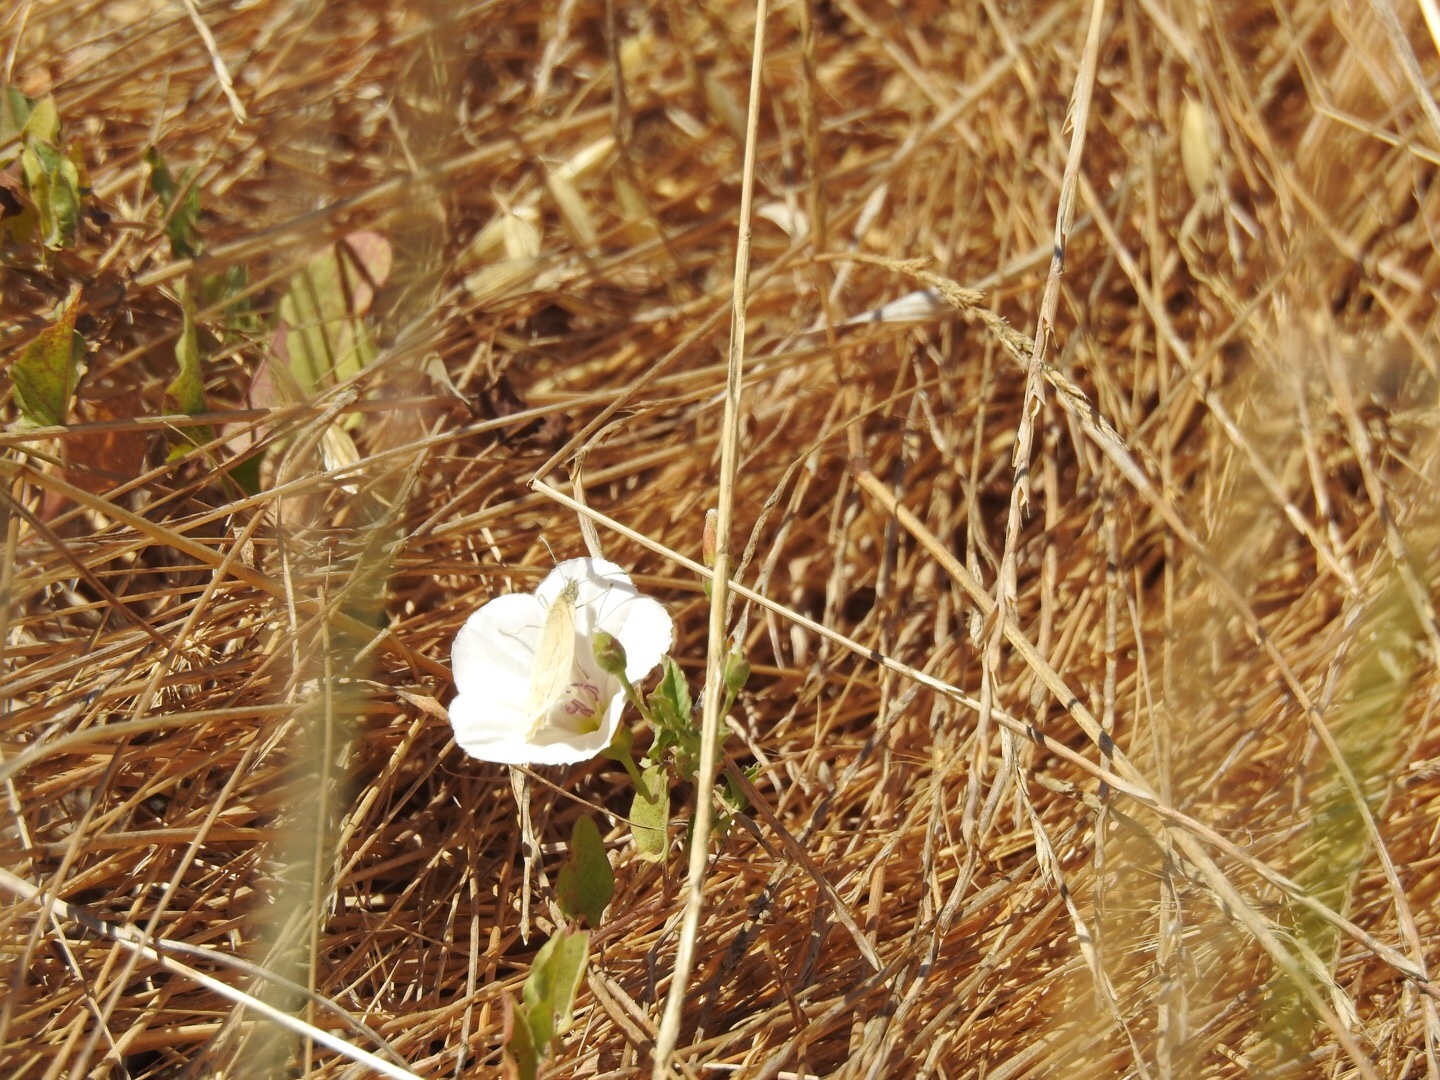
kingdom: Plantae
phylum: Tracheophyta
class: Magnoliopsida
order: Solanales
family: Convolvulaceae
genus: Convolvulus
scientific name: Convolvulus arvensis
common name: Field bindweed
